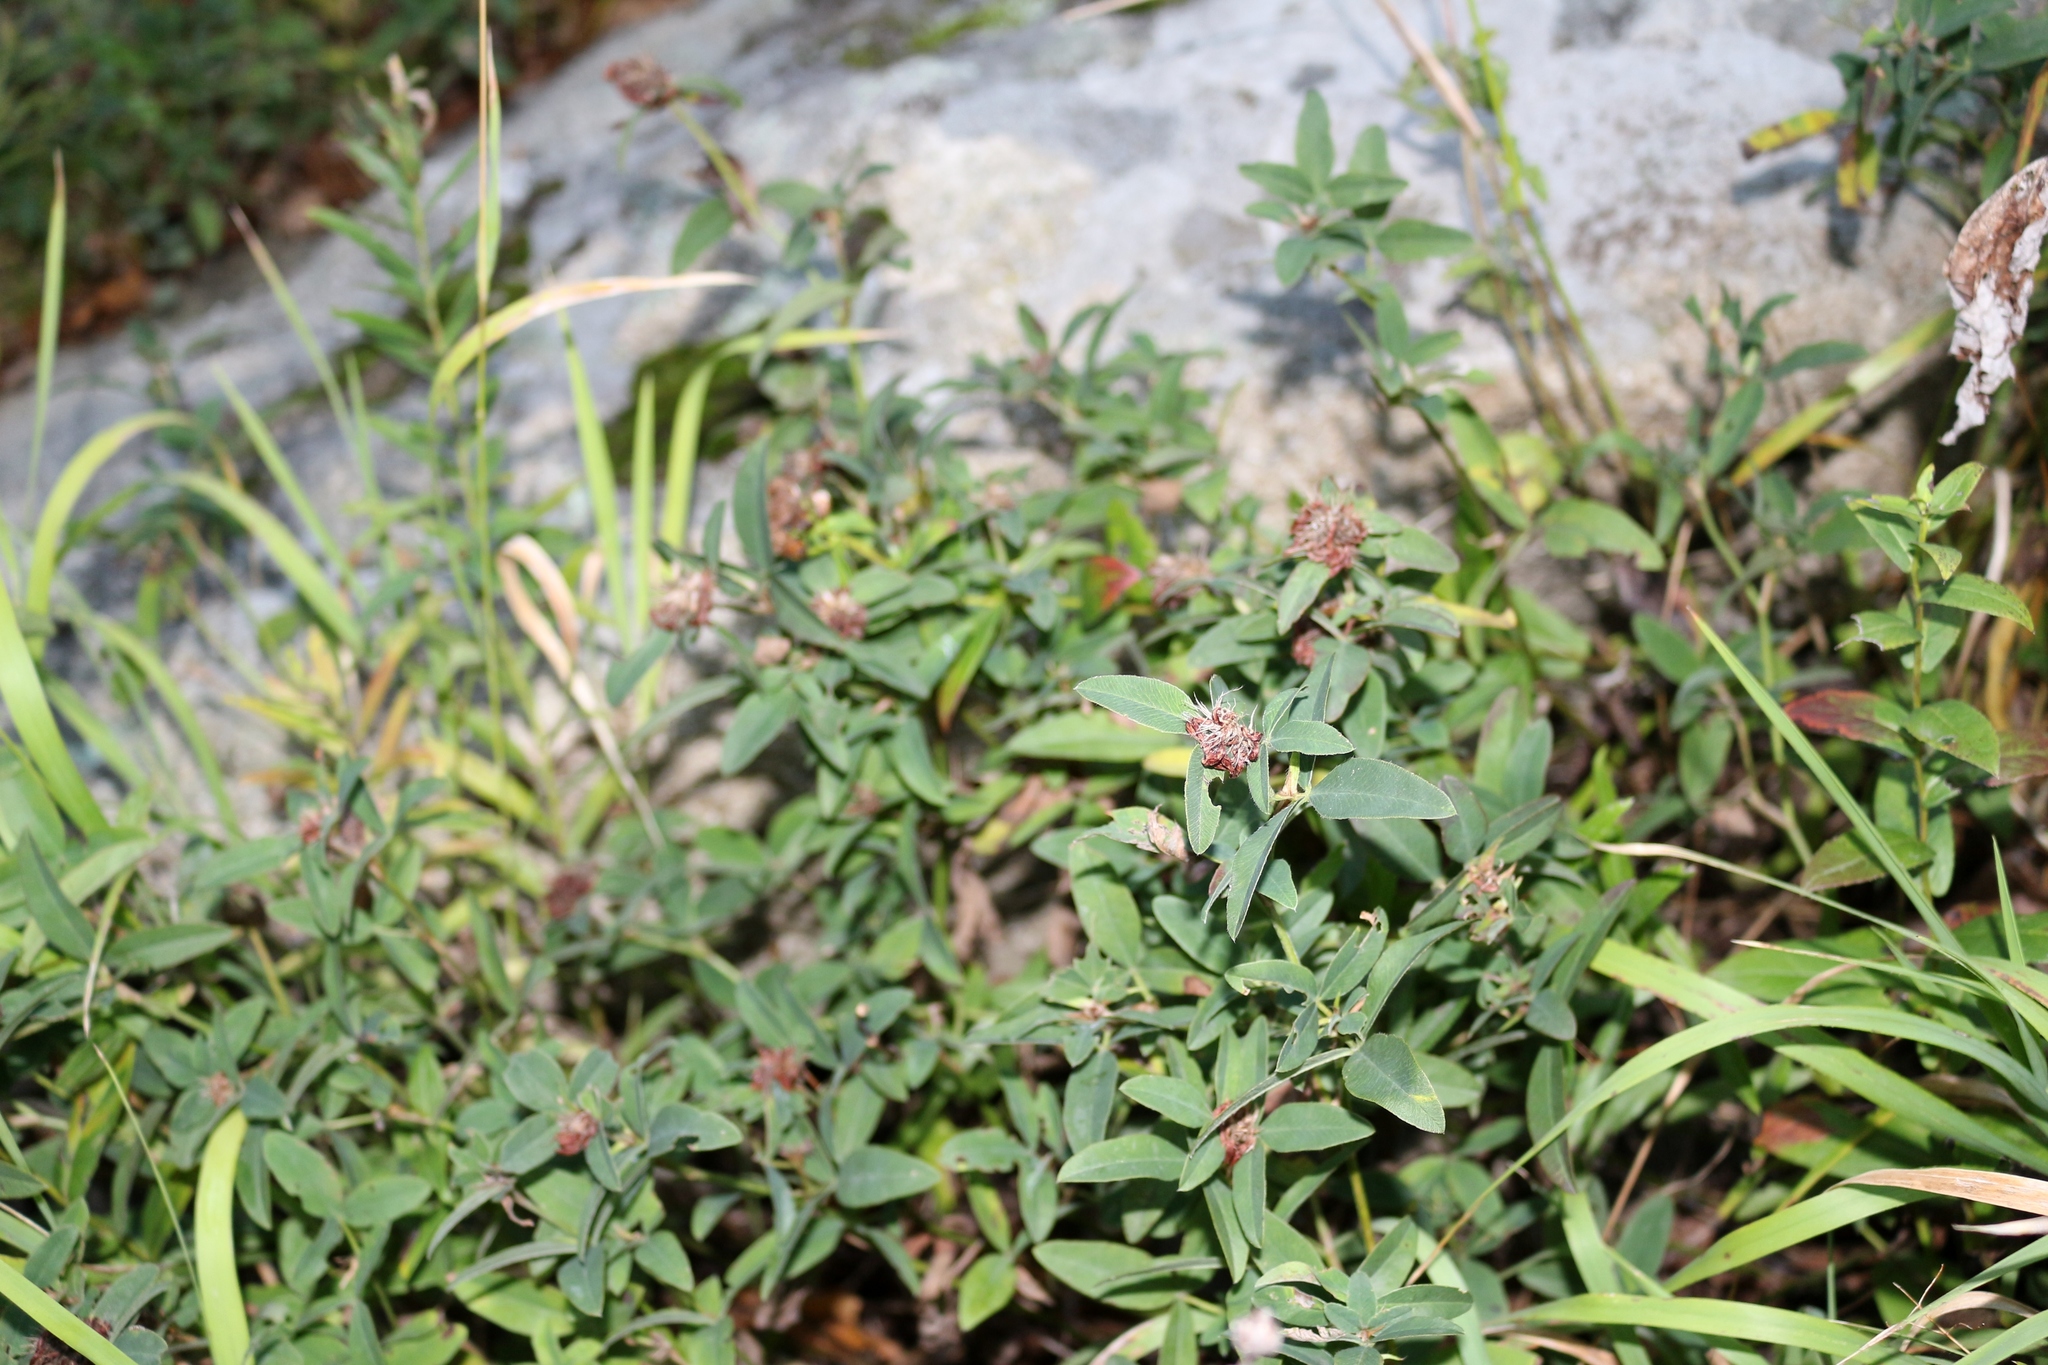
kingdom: Plantae
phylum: Tracheophyta
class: Magnoliopsida
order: Fabales
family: Fabaceae
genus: Trifolium
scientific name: Trifolium medium
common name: Zigzag clover
